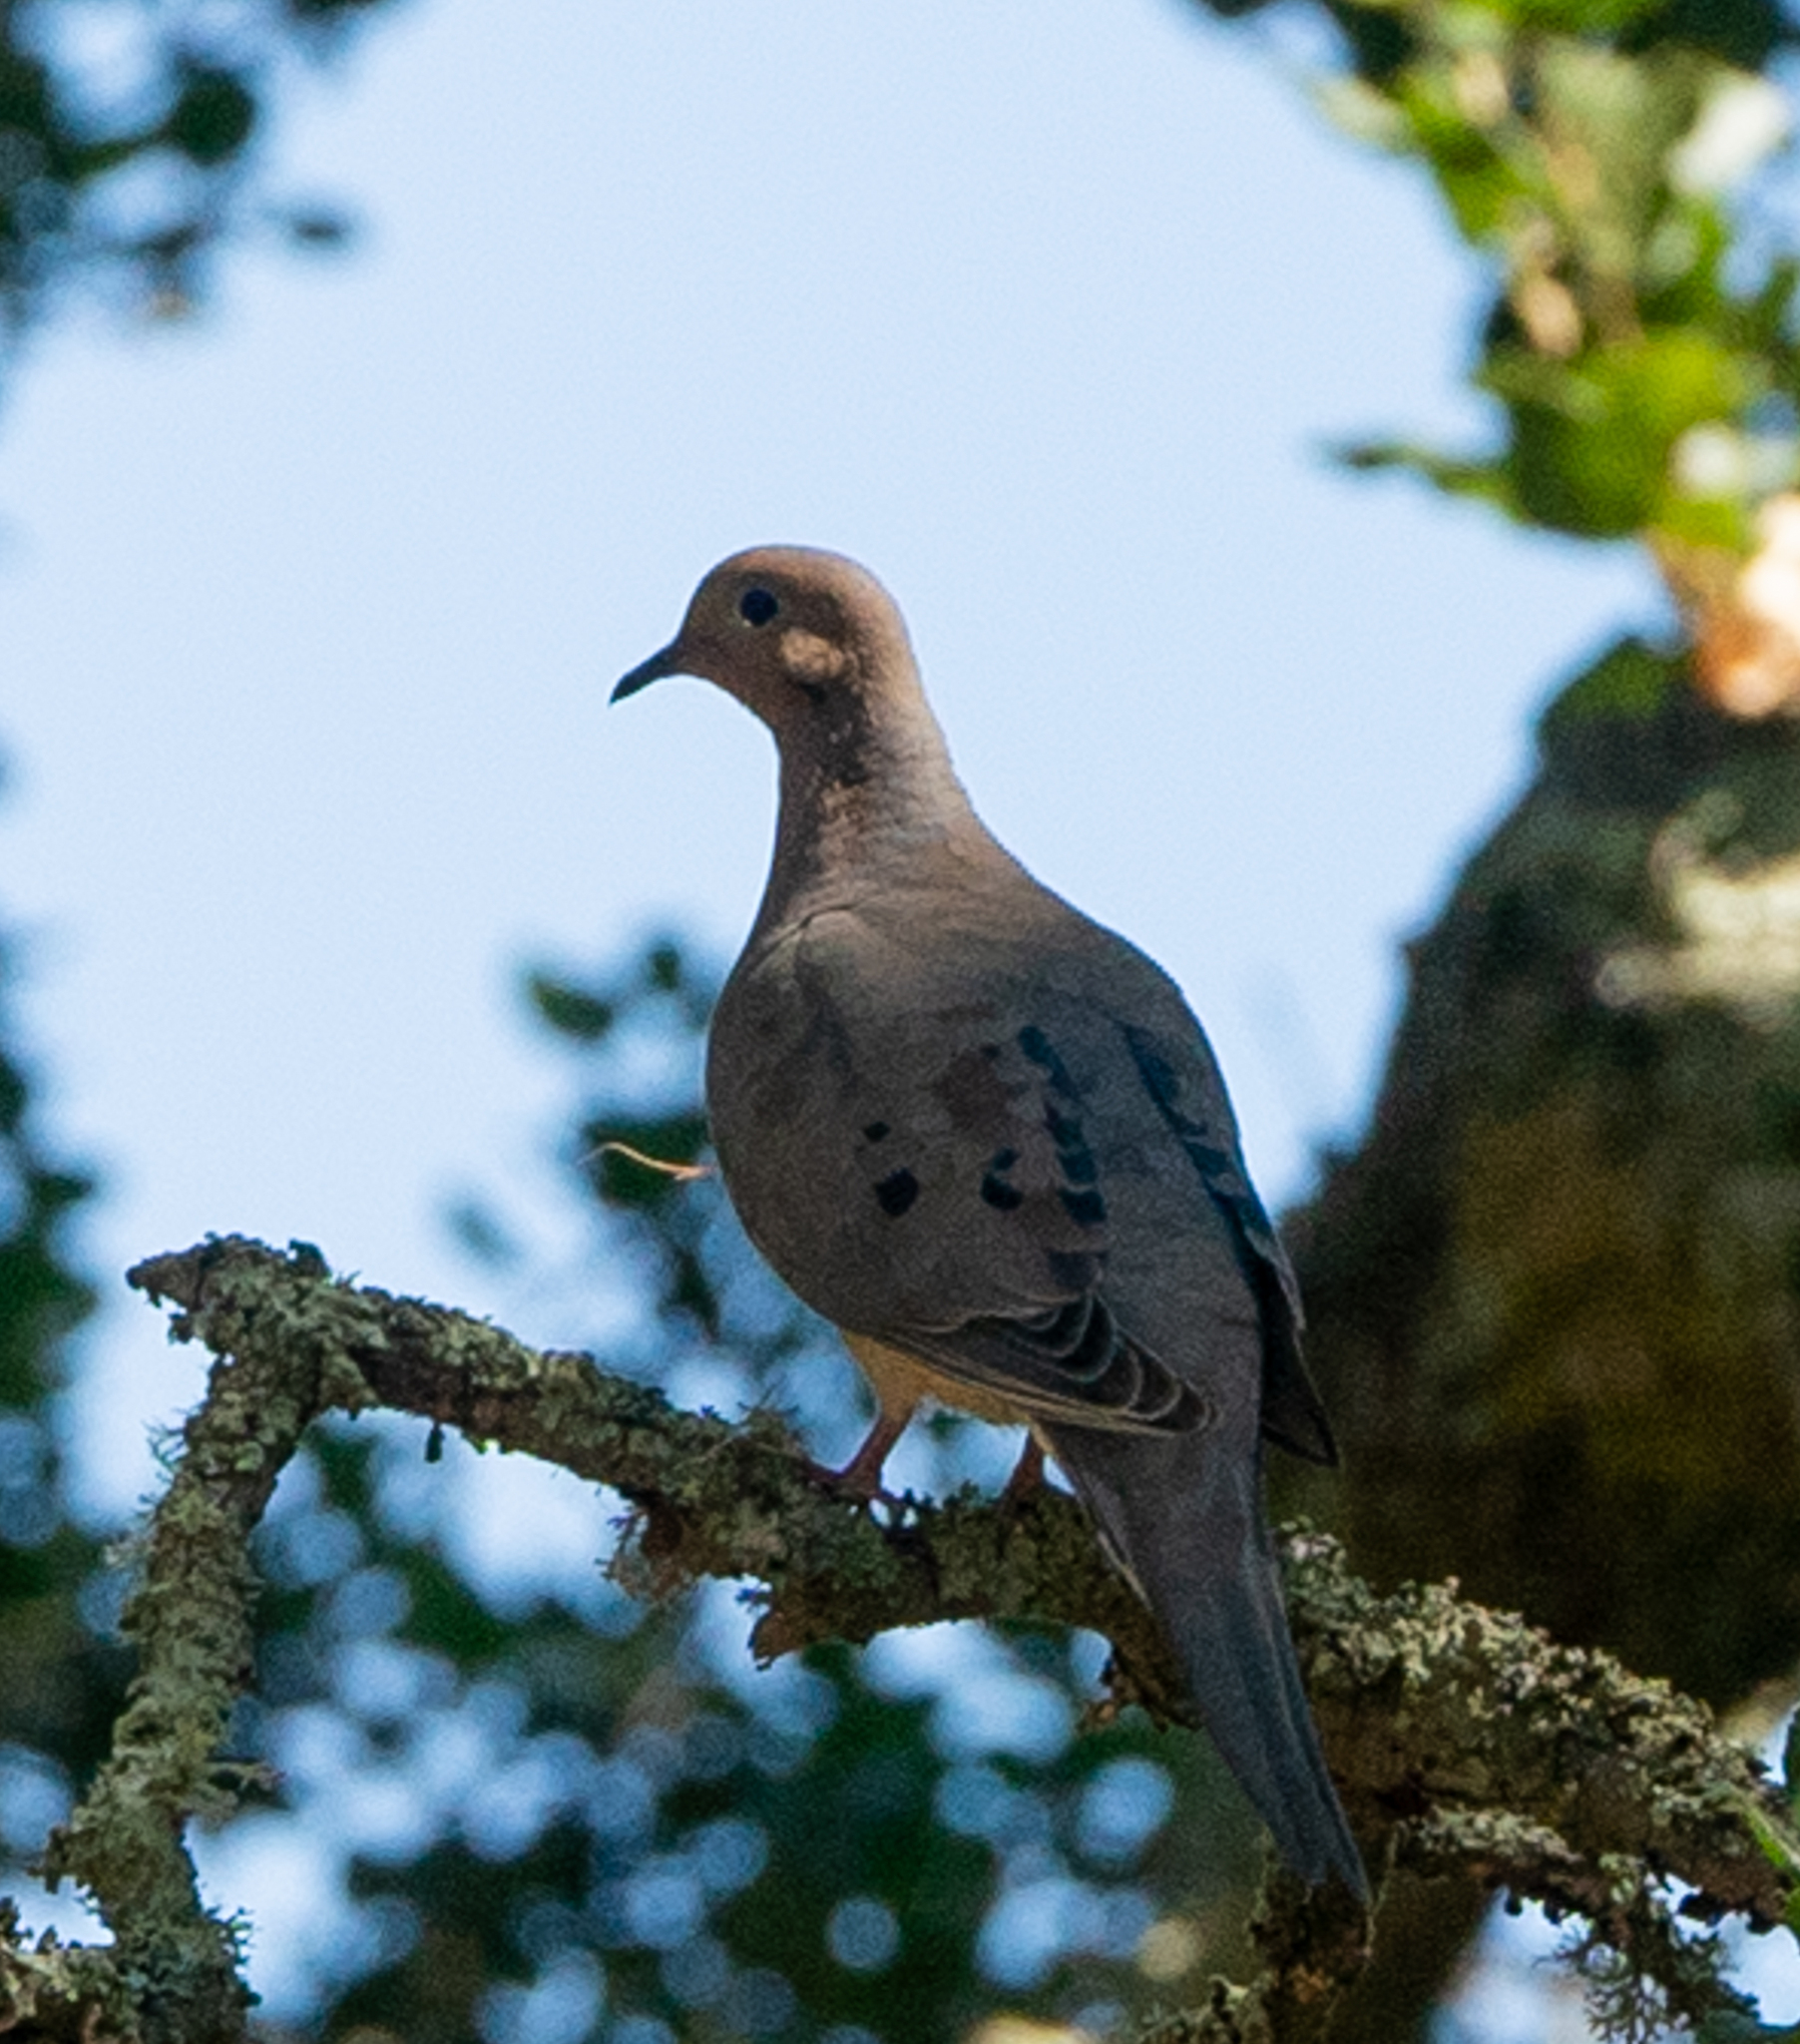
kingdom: Animalia
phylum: Chordata
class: Aves
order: Columbiformes
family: Columbidae
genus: Zenaida
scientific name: Zenaida macroura
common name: Mourning dove
